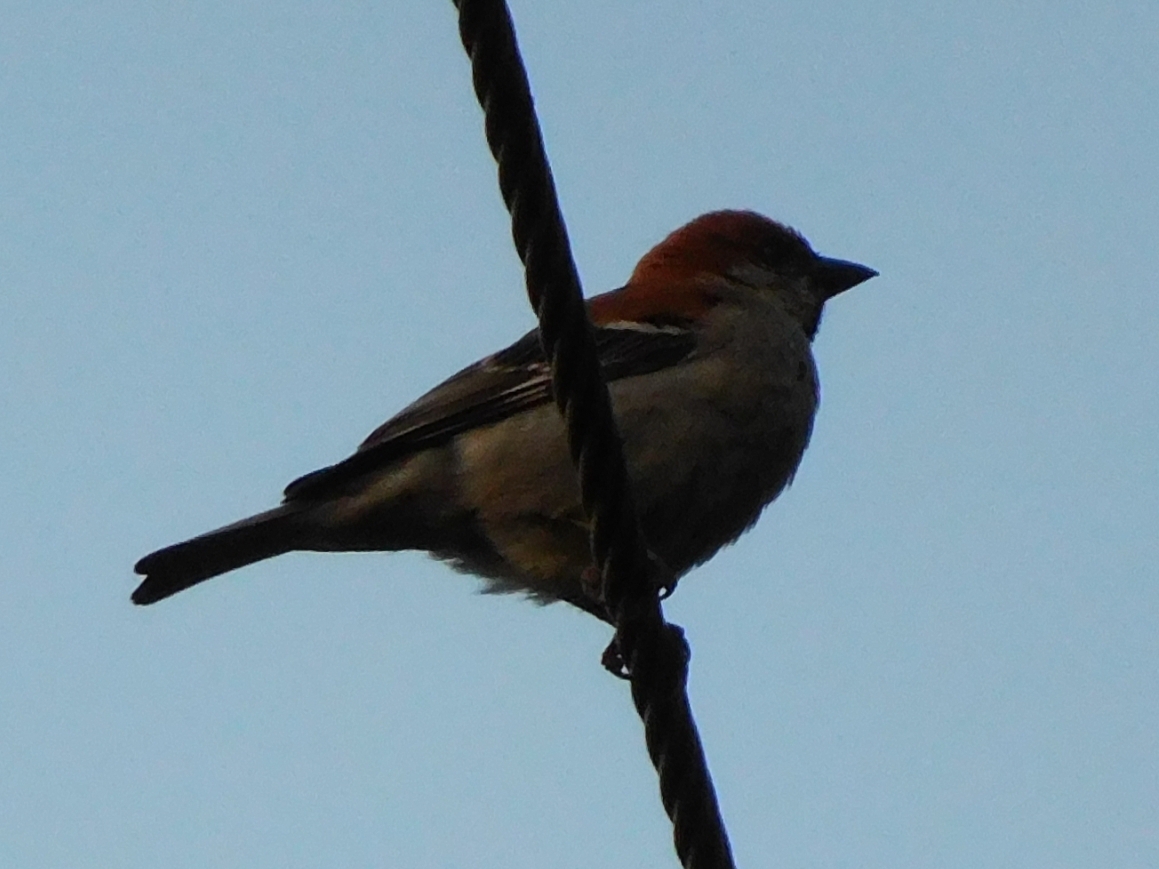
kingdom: Animalia
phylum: Chordata
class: Aves
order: Passeriformes
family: Passeridae
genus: Passer
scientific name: Passer cinnamomeus
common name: Russet sparrow
